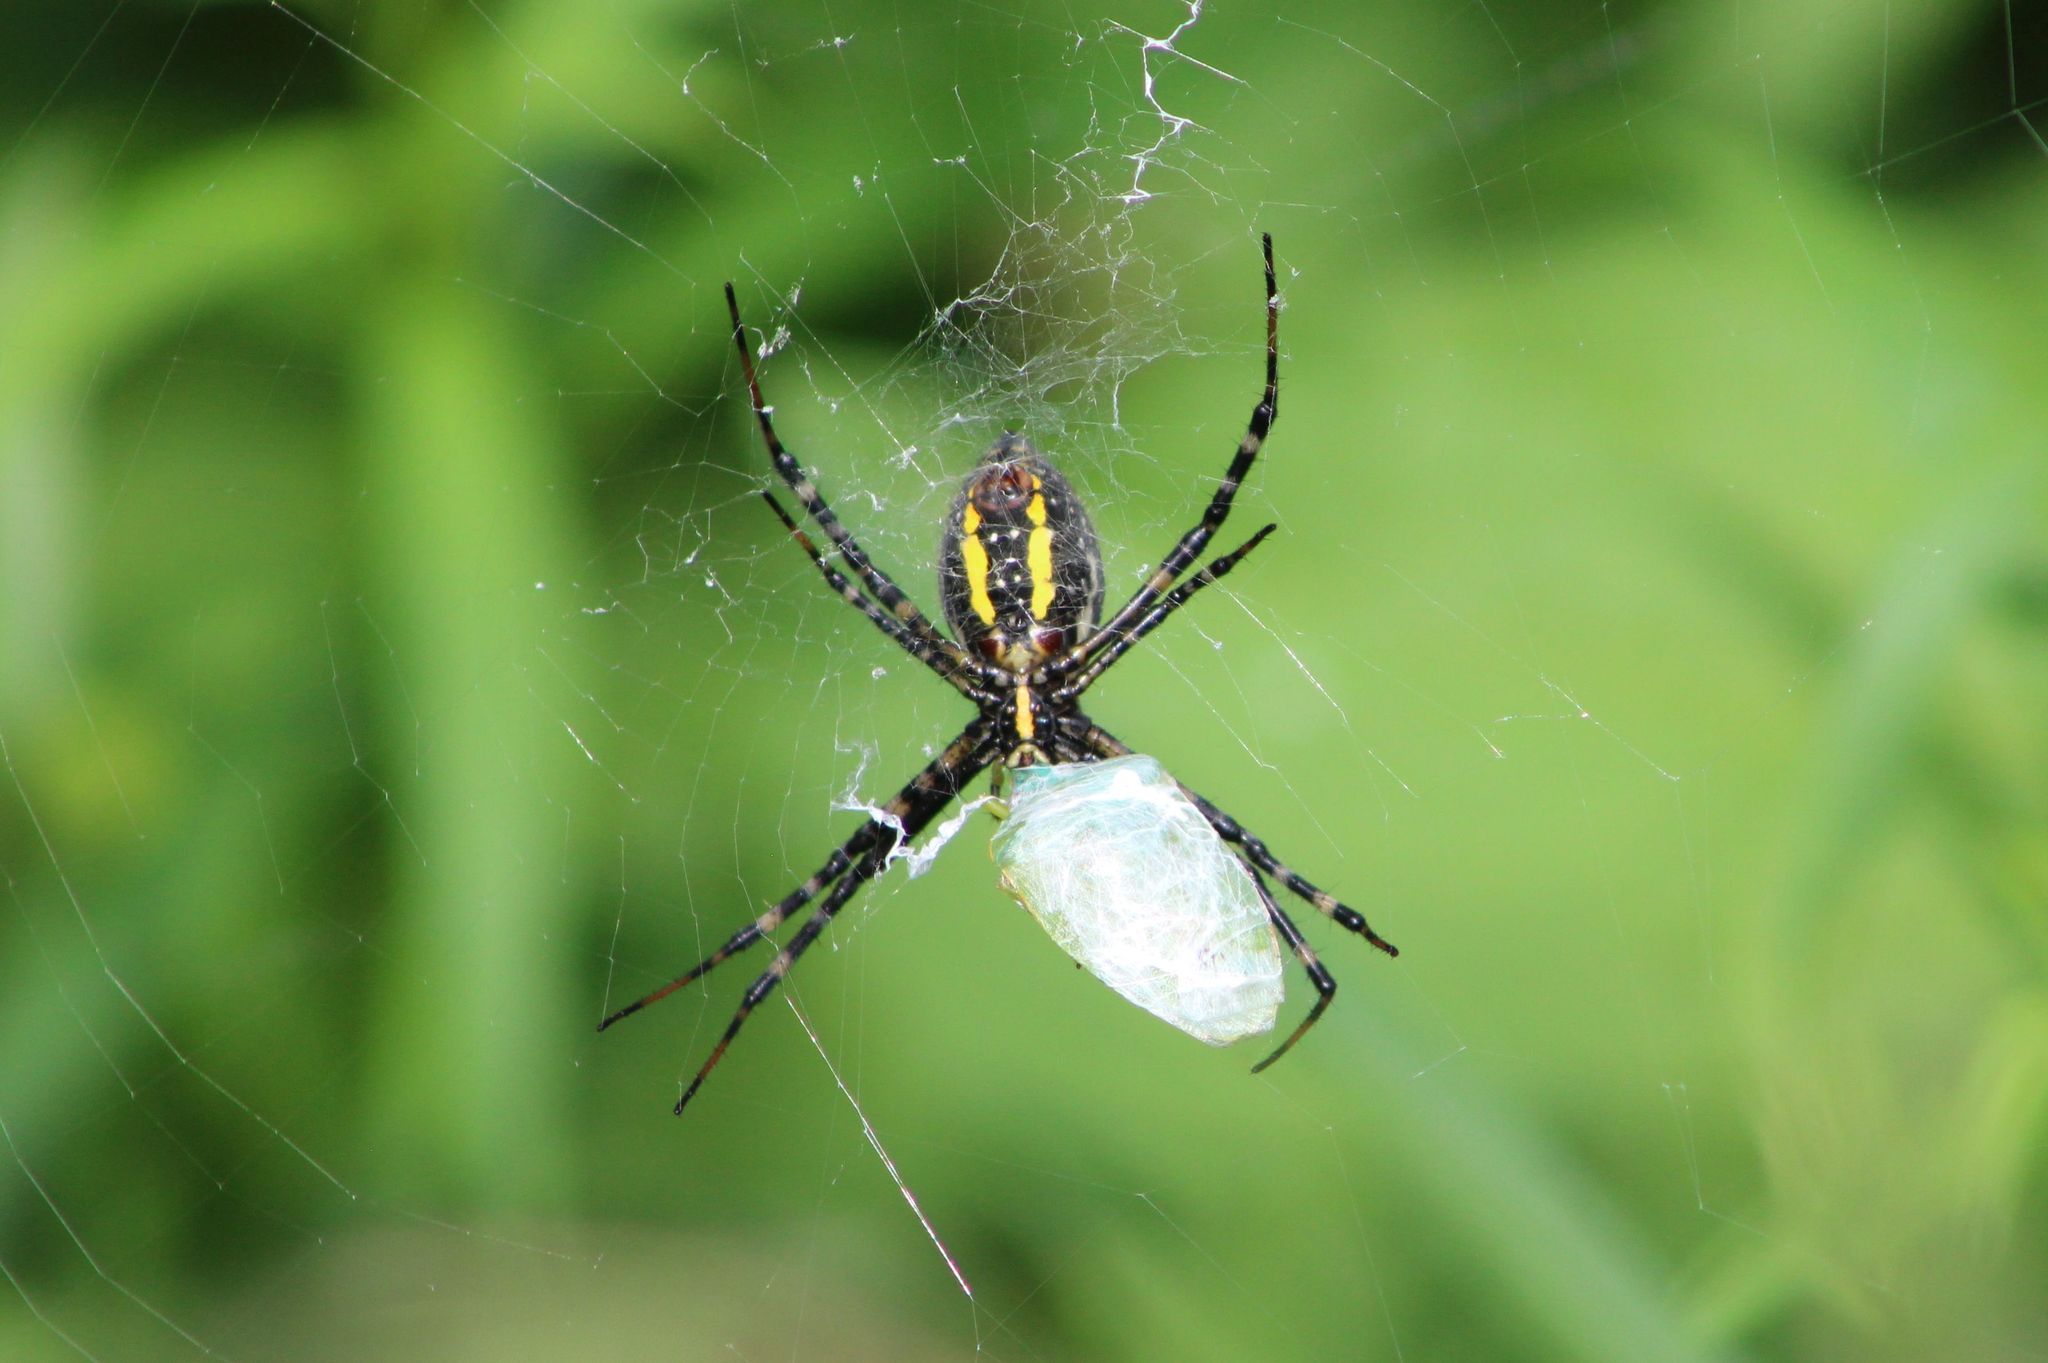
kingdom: Animalia
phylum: Arthropoda
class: Arachnida
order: Araneae
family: Araneidae
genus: Argiope
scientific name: Argiope trifasciata
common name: Banded garden spider
